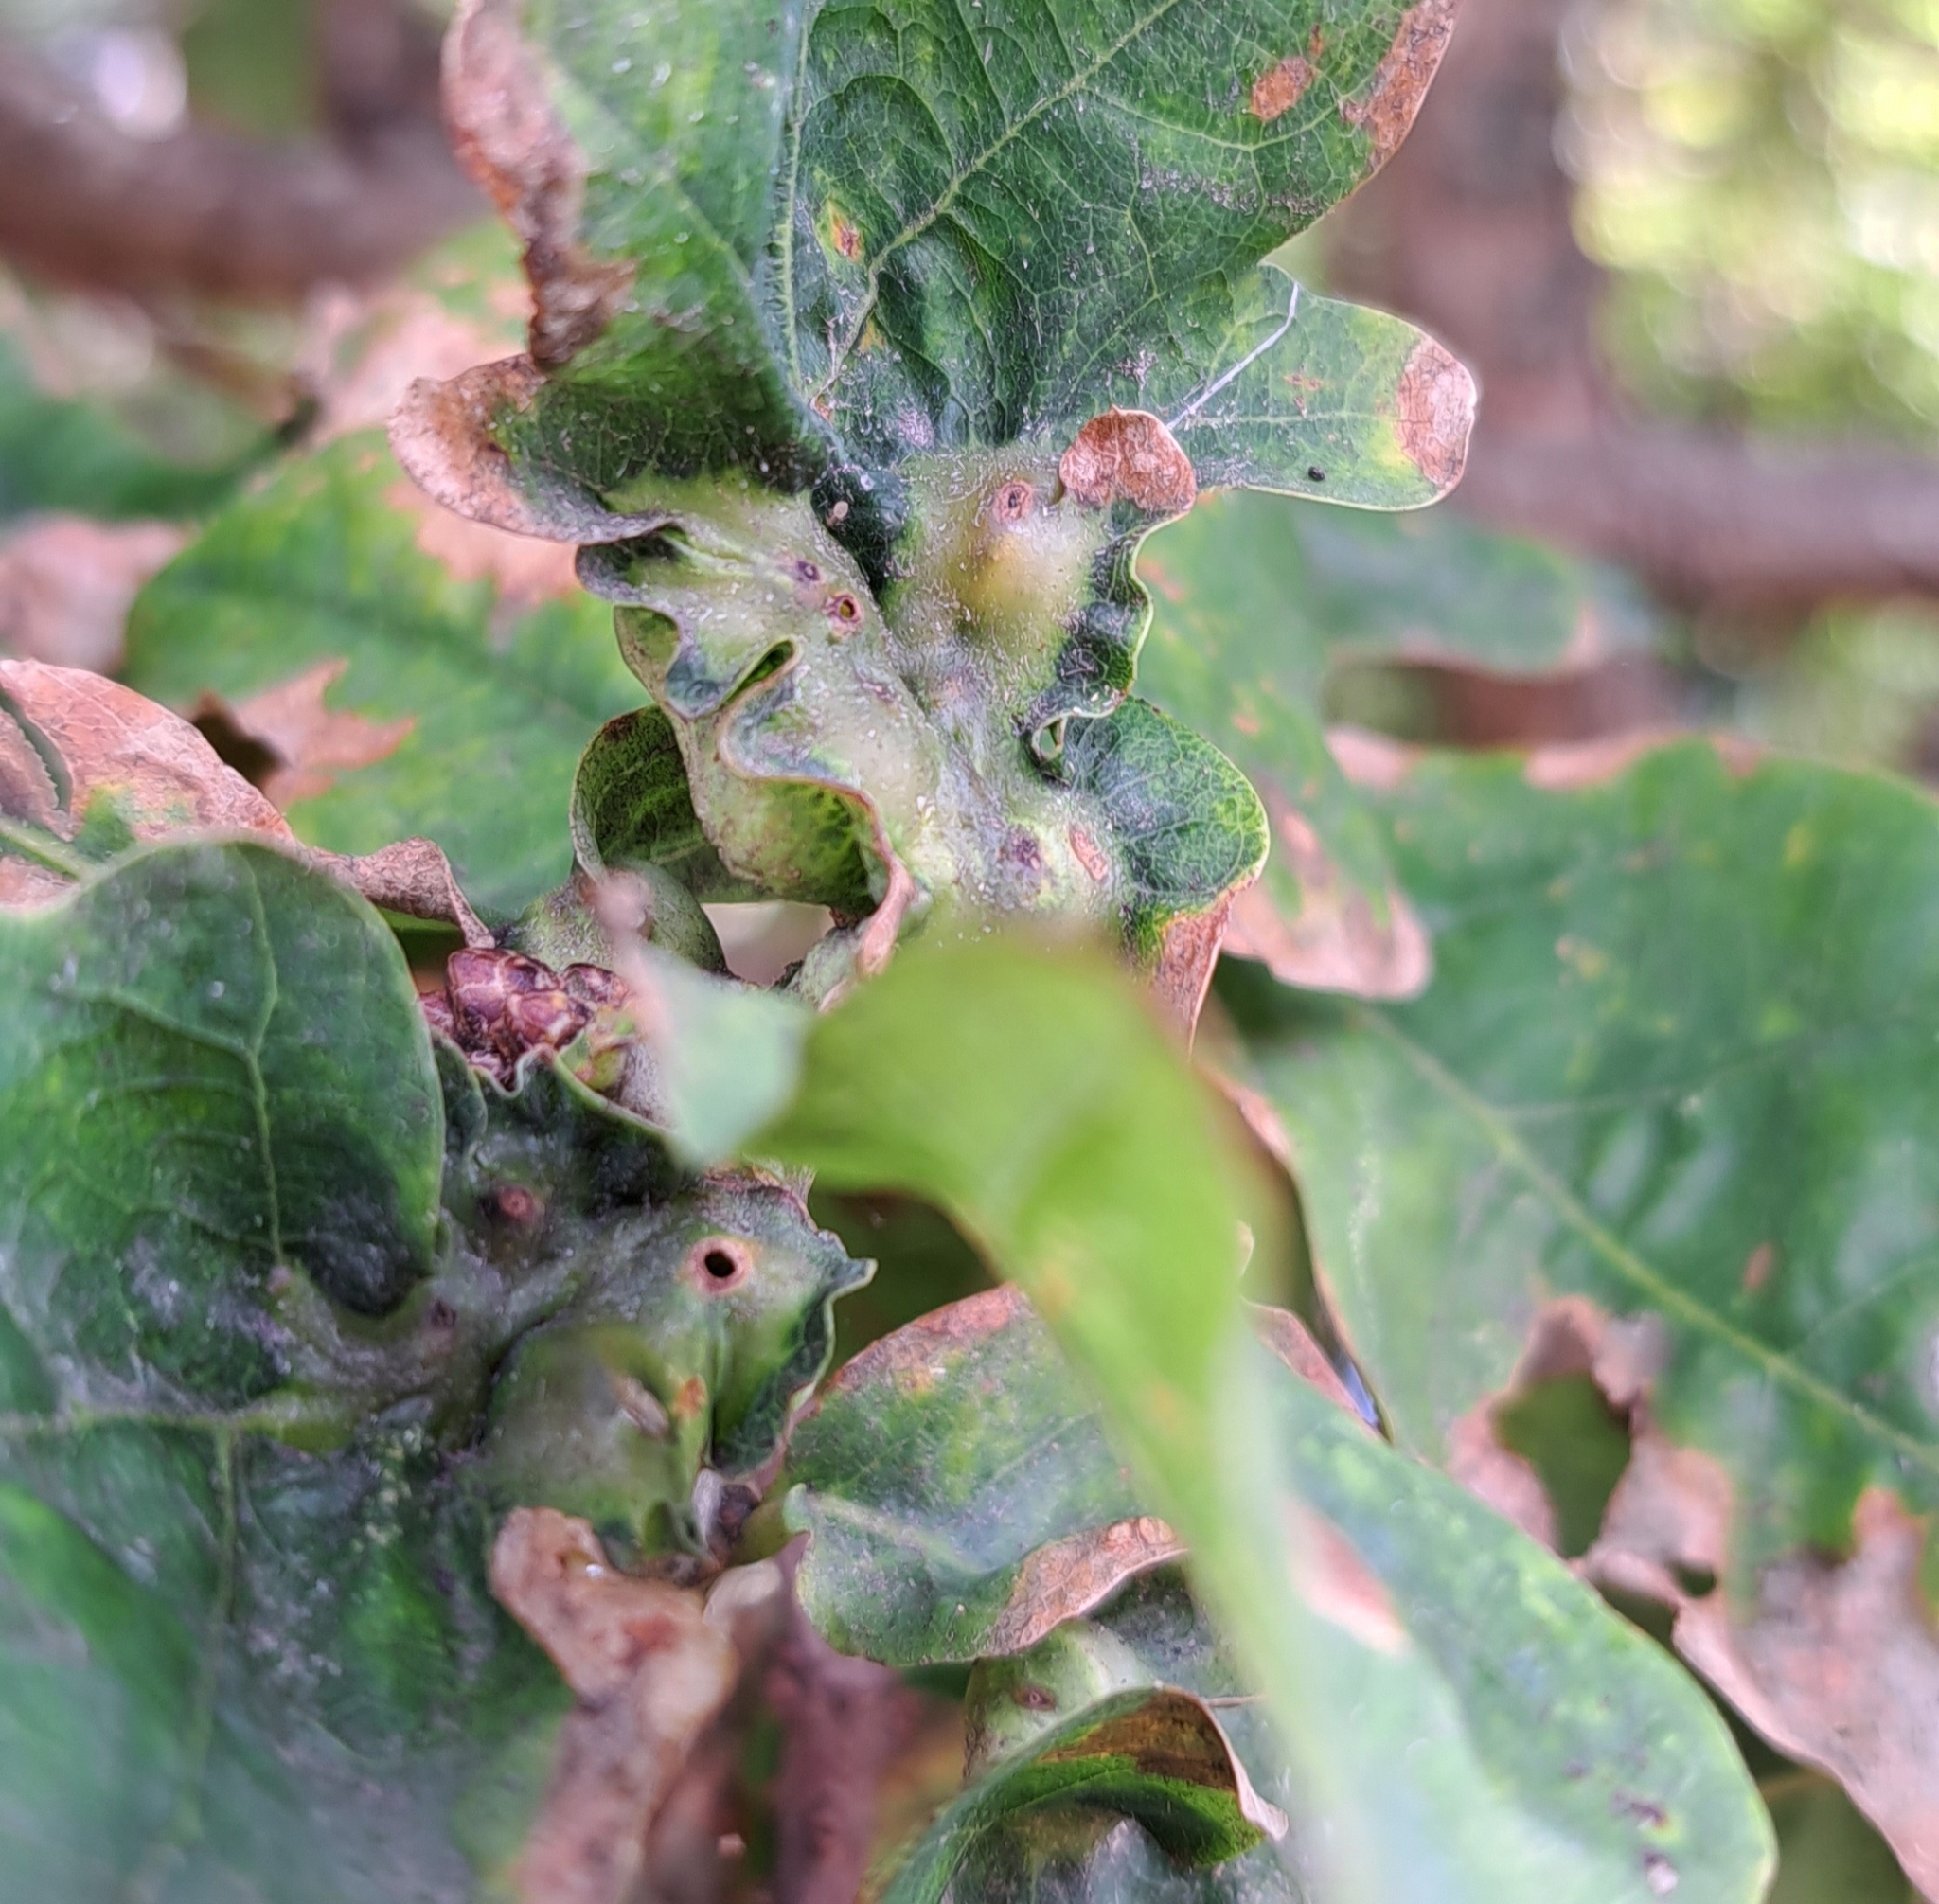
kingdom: Animalia
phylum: Arthropoda
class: Insecta
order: Hymenoptera
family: Cynipidae
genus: Andricus
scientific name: Andricus curvator
